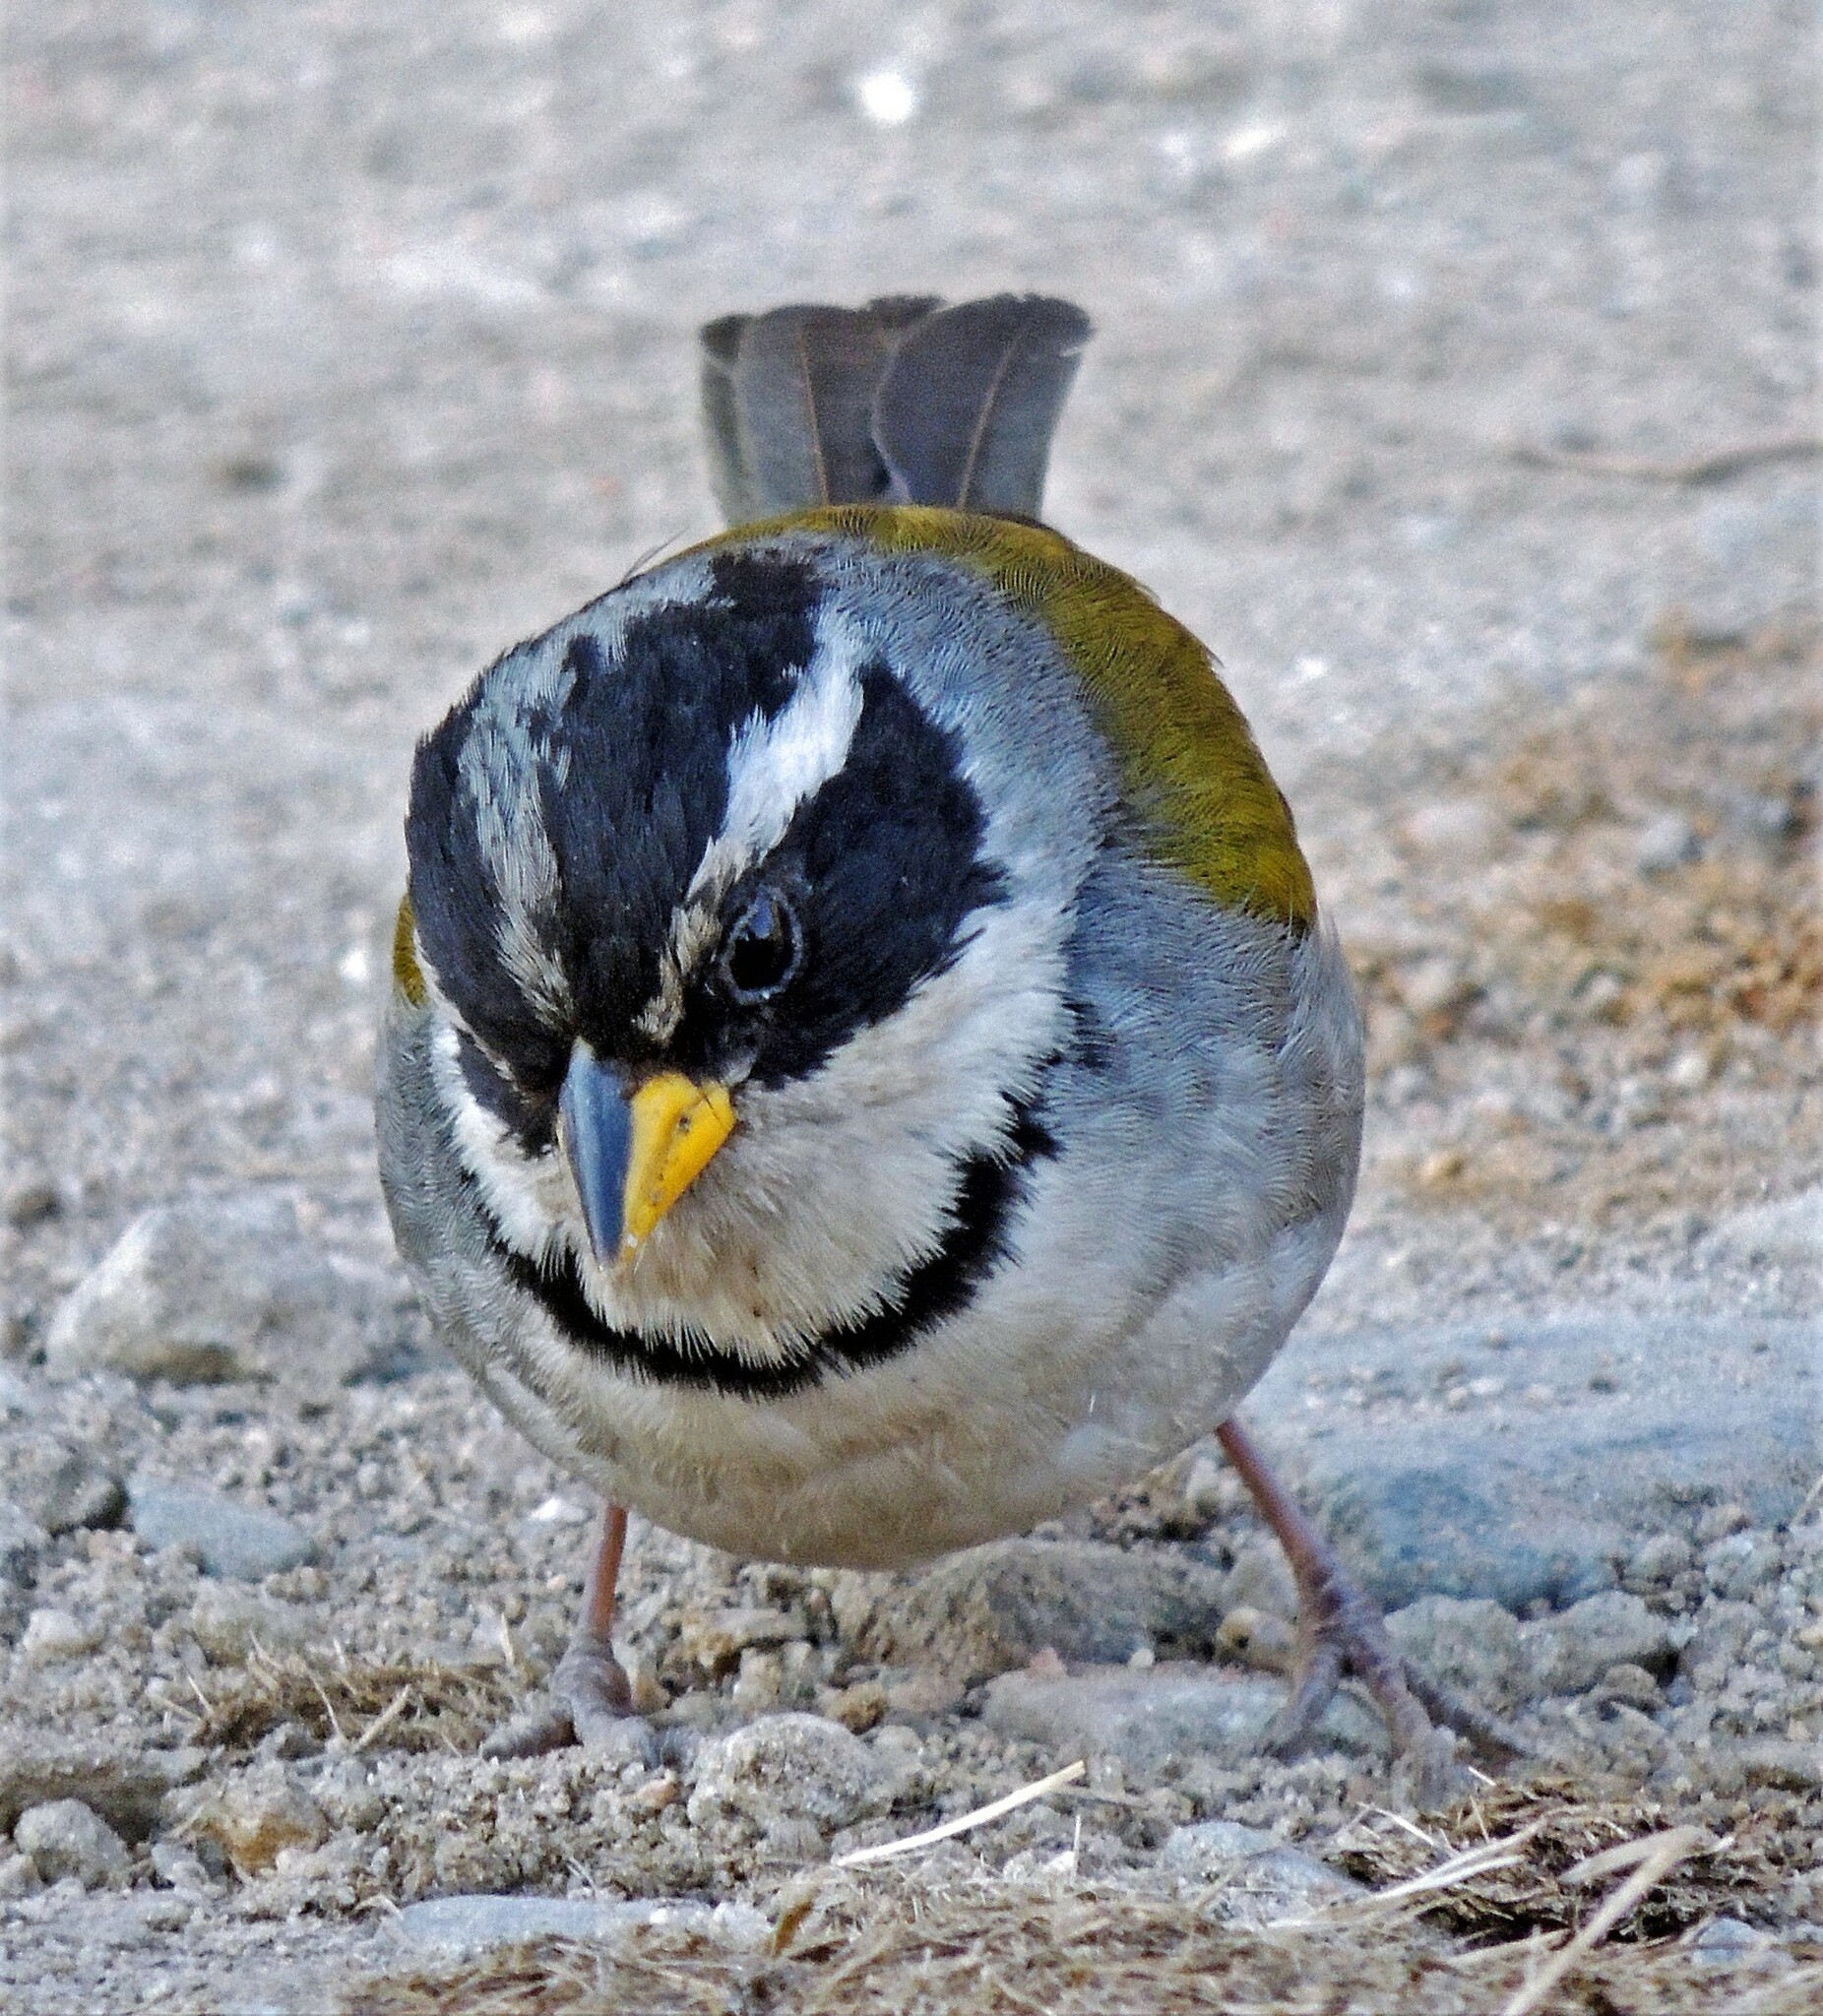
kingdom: Animalia
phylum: Chordata
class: Aves
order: Passeriformes
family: Passerellidae
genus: Arremon
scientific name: Arremon dorbignii
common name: Moss-backed sparrow
